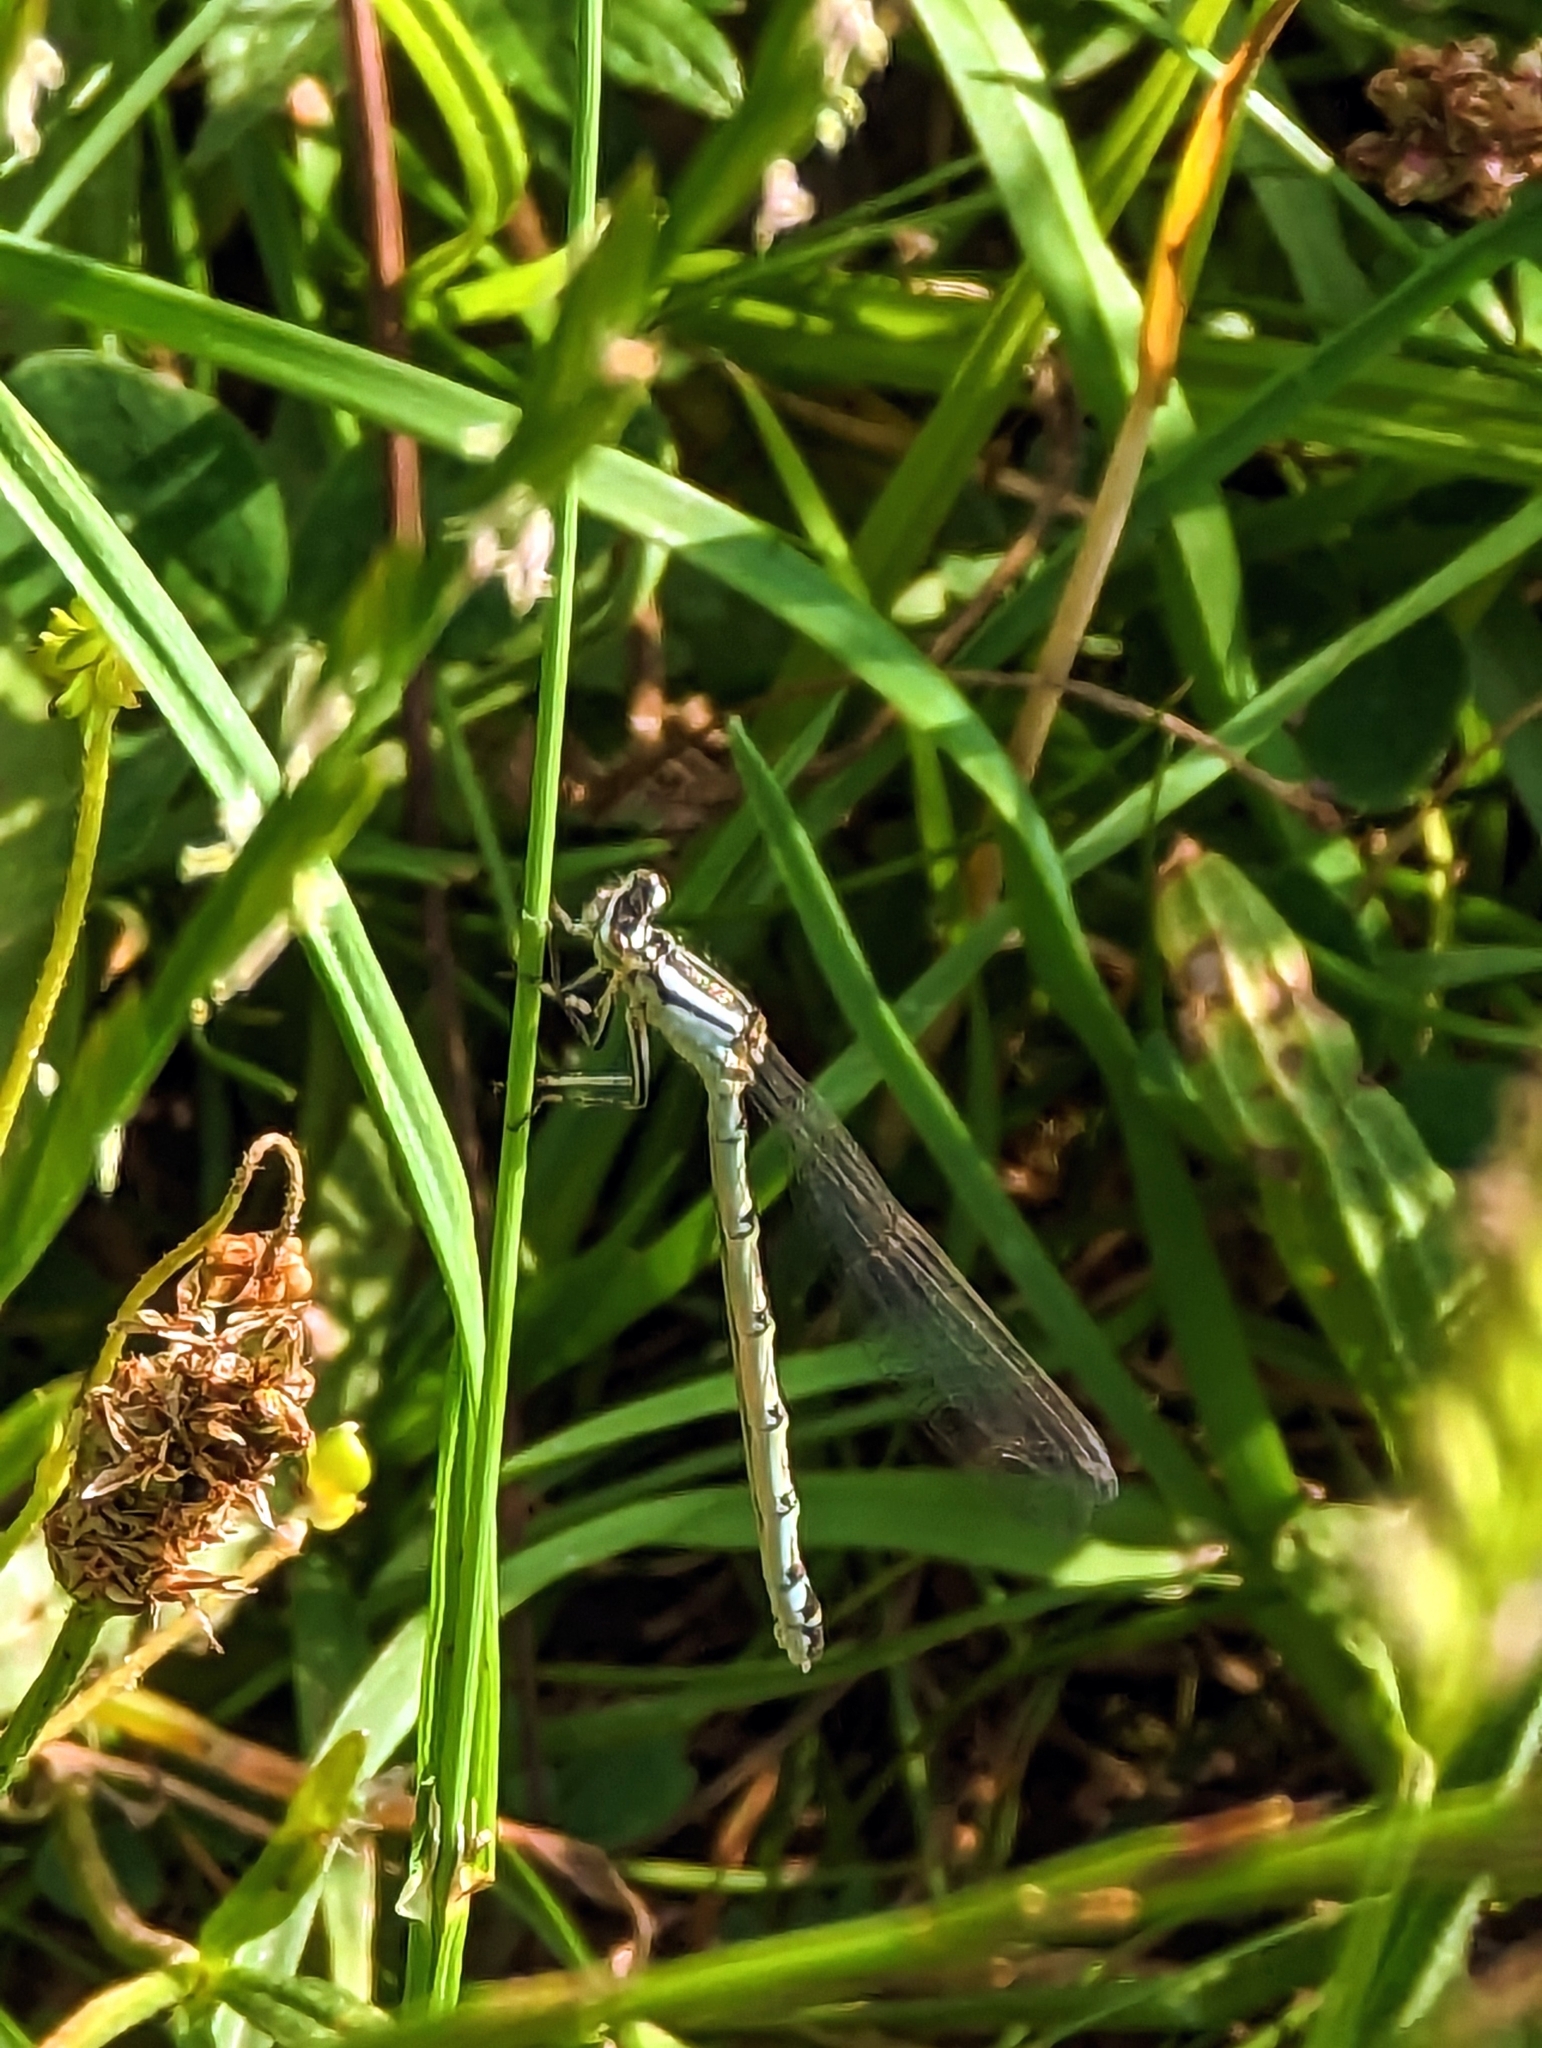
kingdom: Animalia
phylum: Arthropoda
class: Insecta
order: Odonata
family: Coenagrionidae
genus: Enallagma
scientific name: Enallagma cyathigerum
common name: Common blue damselfly
